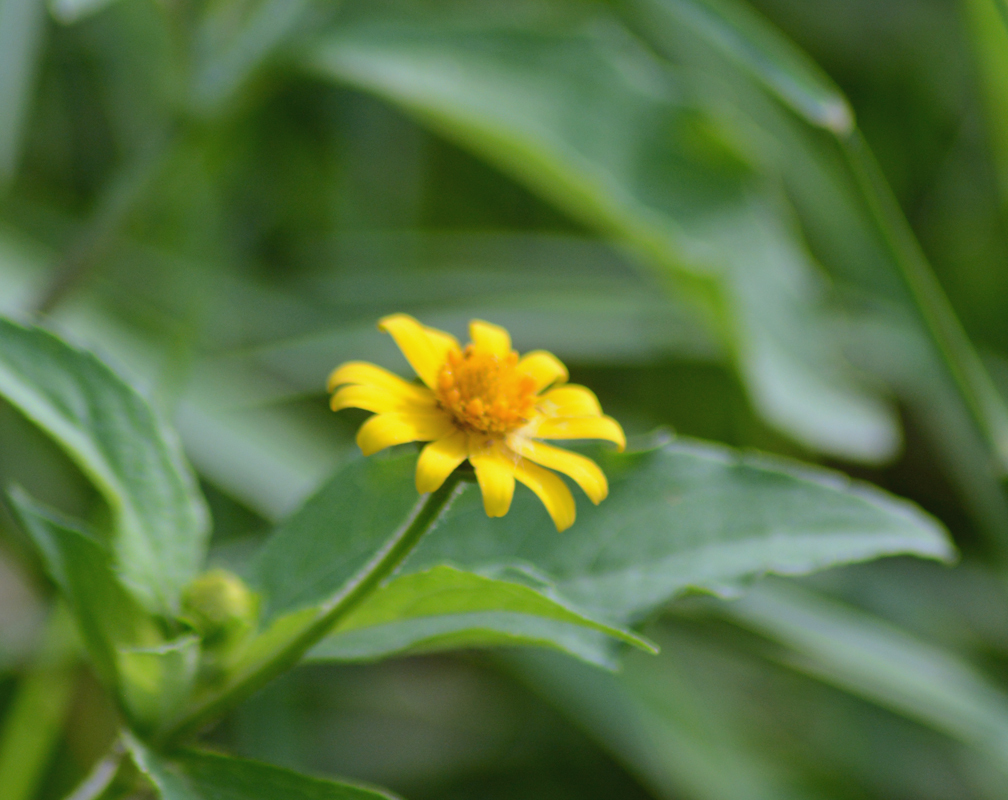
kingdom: Plantae
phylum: Tracheophyta
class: Magnoliopsida
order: Asterales
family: Asteraceae
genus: Melampodium
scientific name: Melampodium divaricatum
